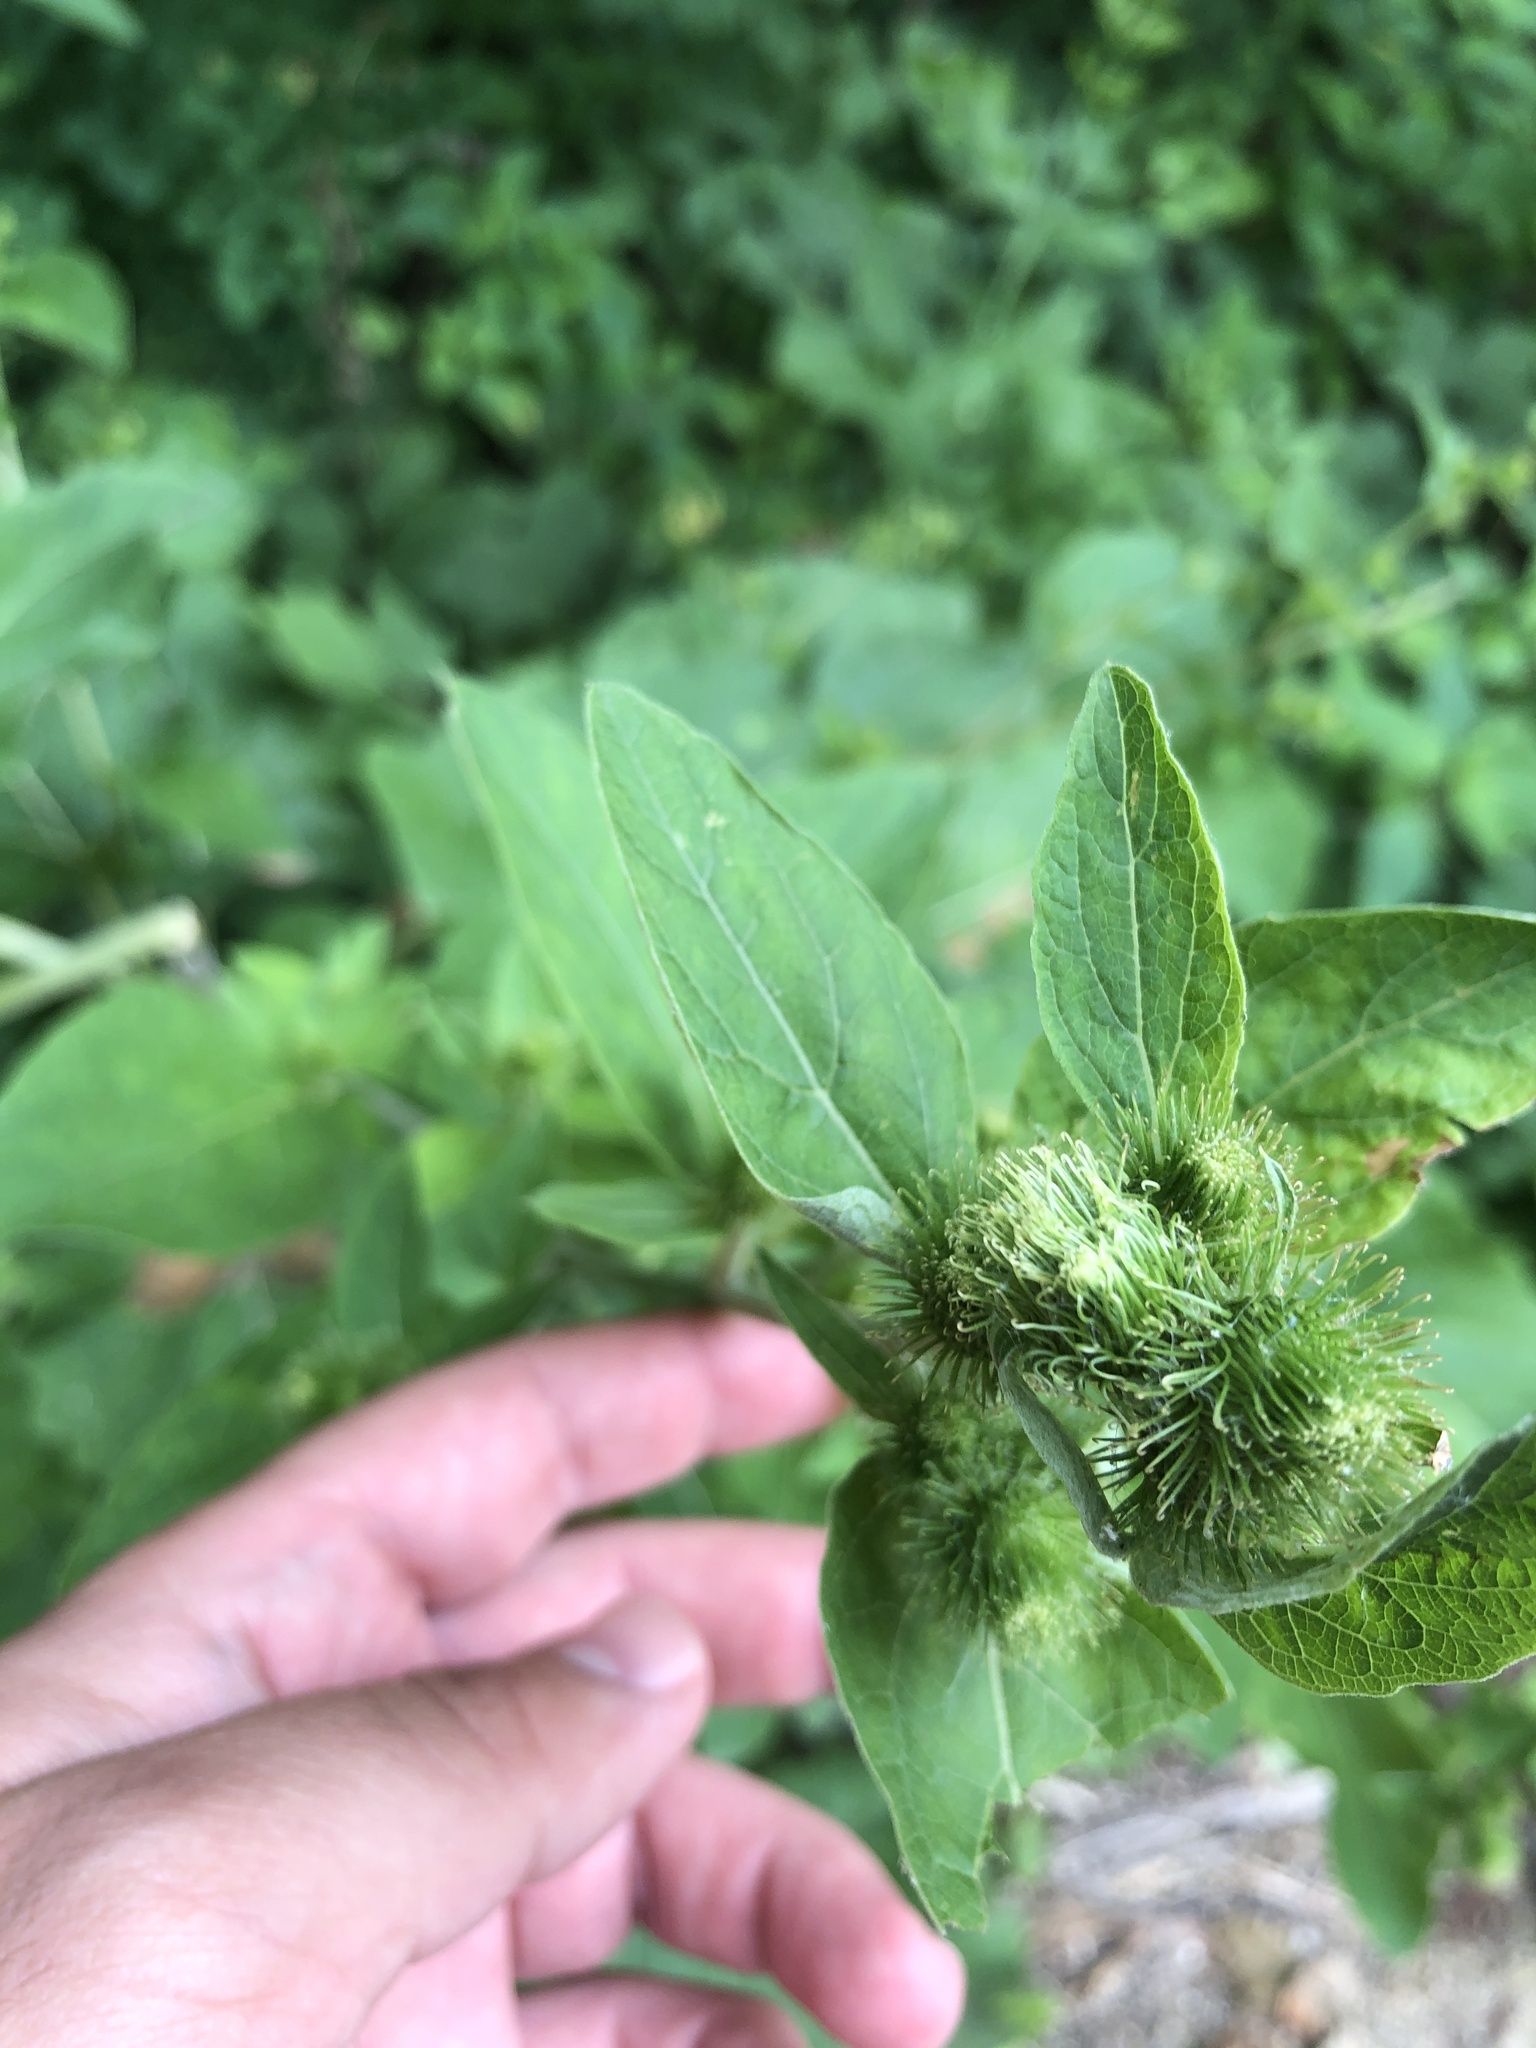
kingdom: Plantae
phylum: Tracheophyta
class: Magnoliopsida
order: Asterales
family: Asteraceae
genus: Arctium
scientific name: Arctium minus
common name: Lesser burdock
